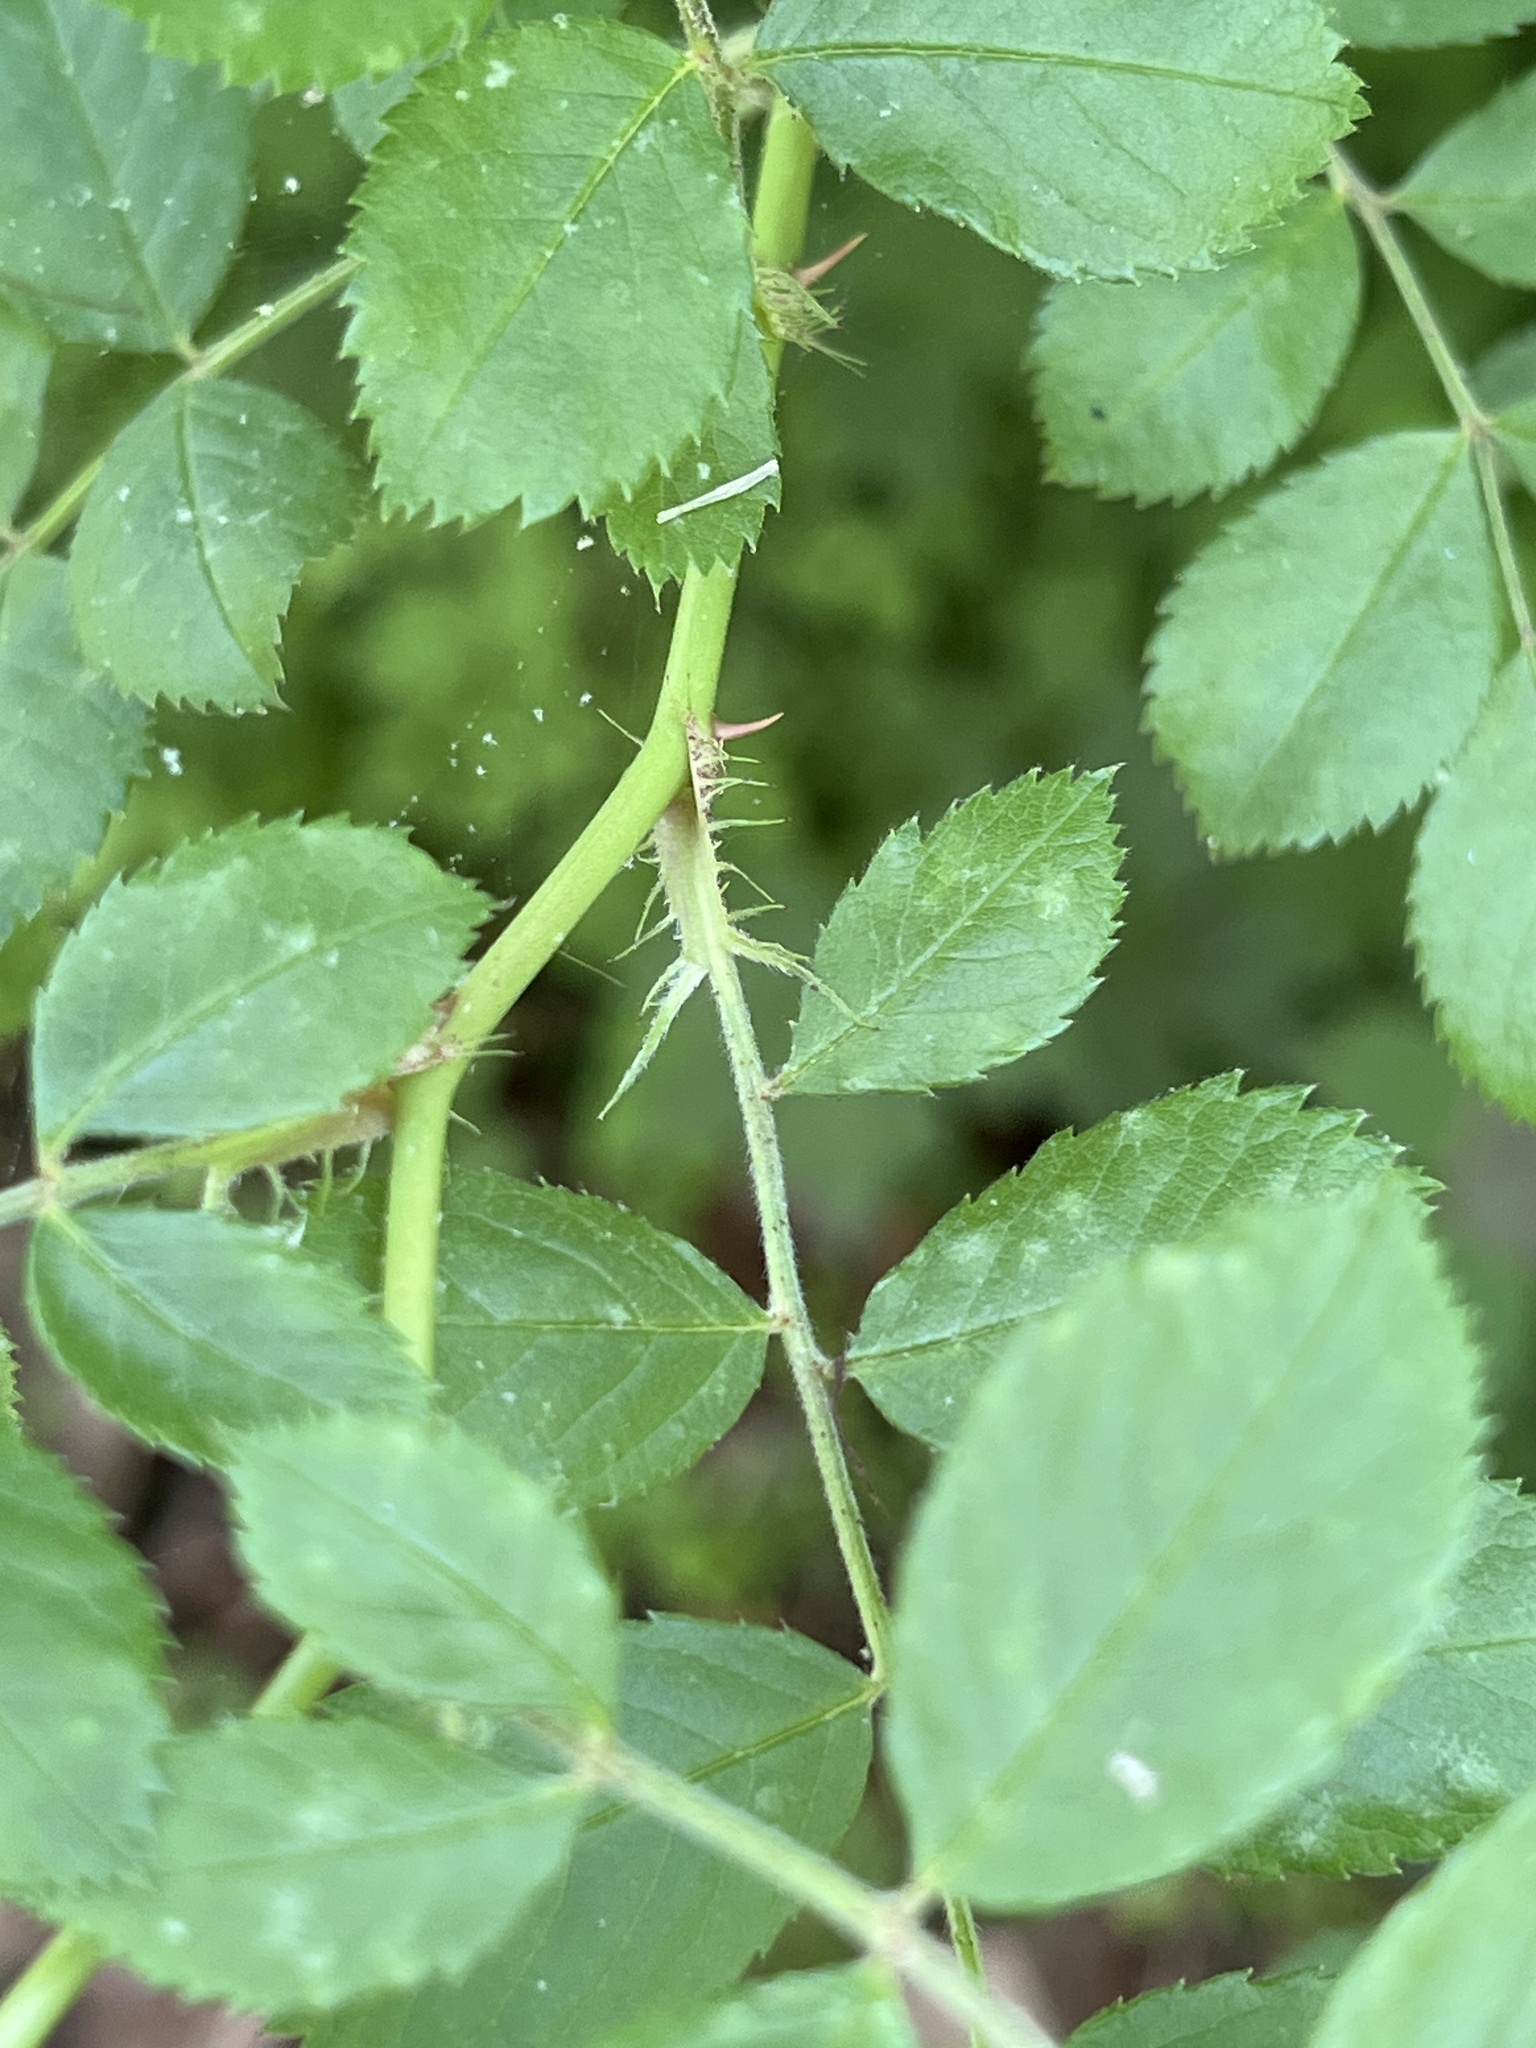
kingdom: Plantae
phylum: Tracheophyta
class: Magnoliopsida
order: Rosales
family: Rosaceae
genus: Rosa
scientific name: Rosa multiflora
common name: Multiflora rose
